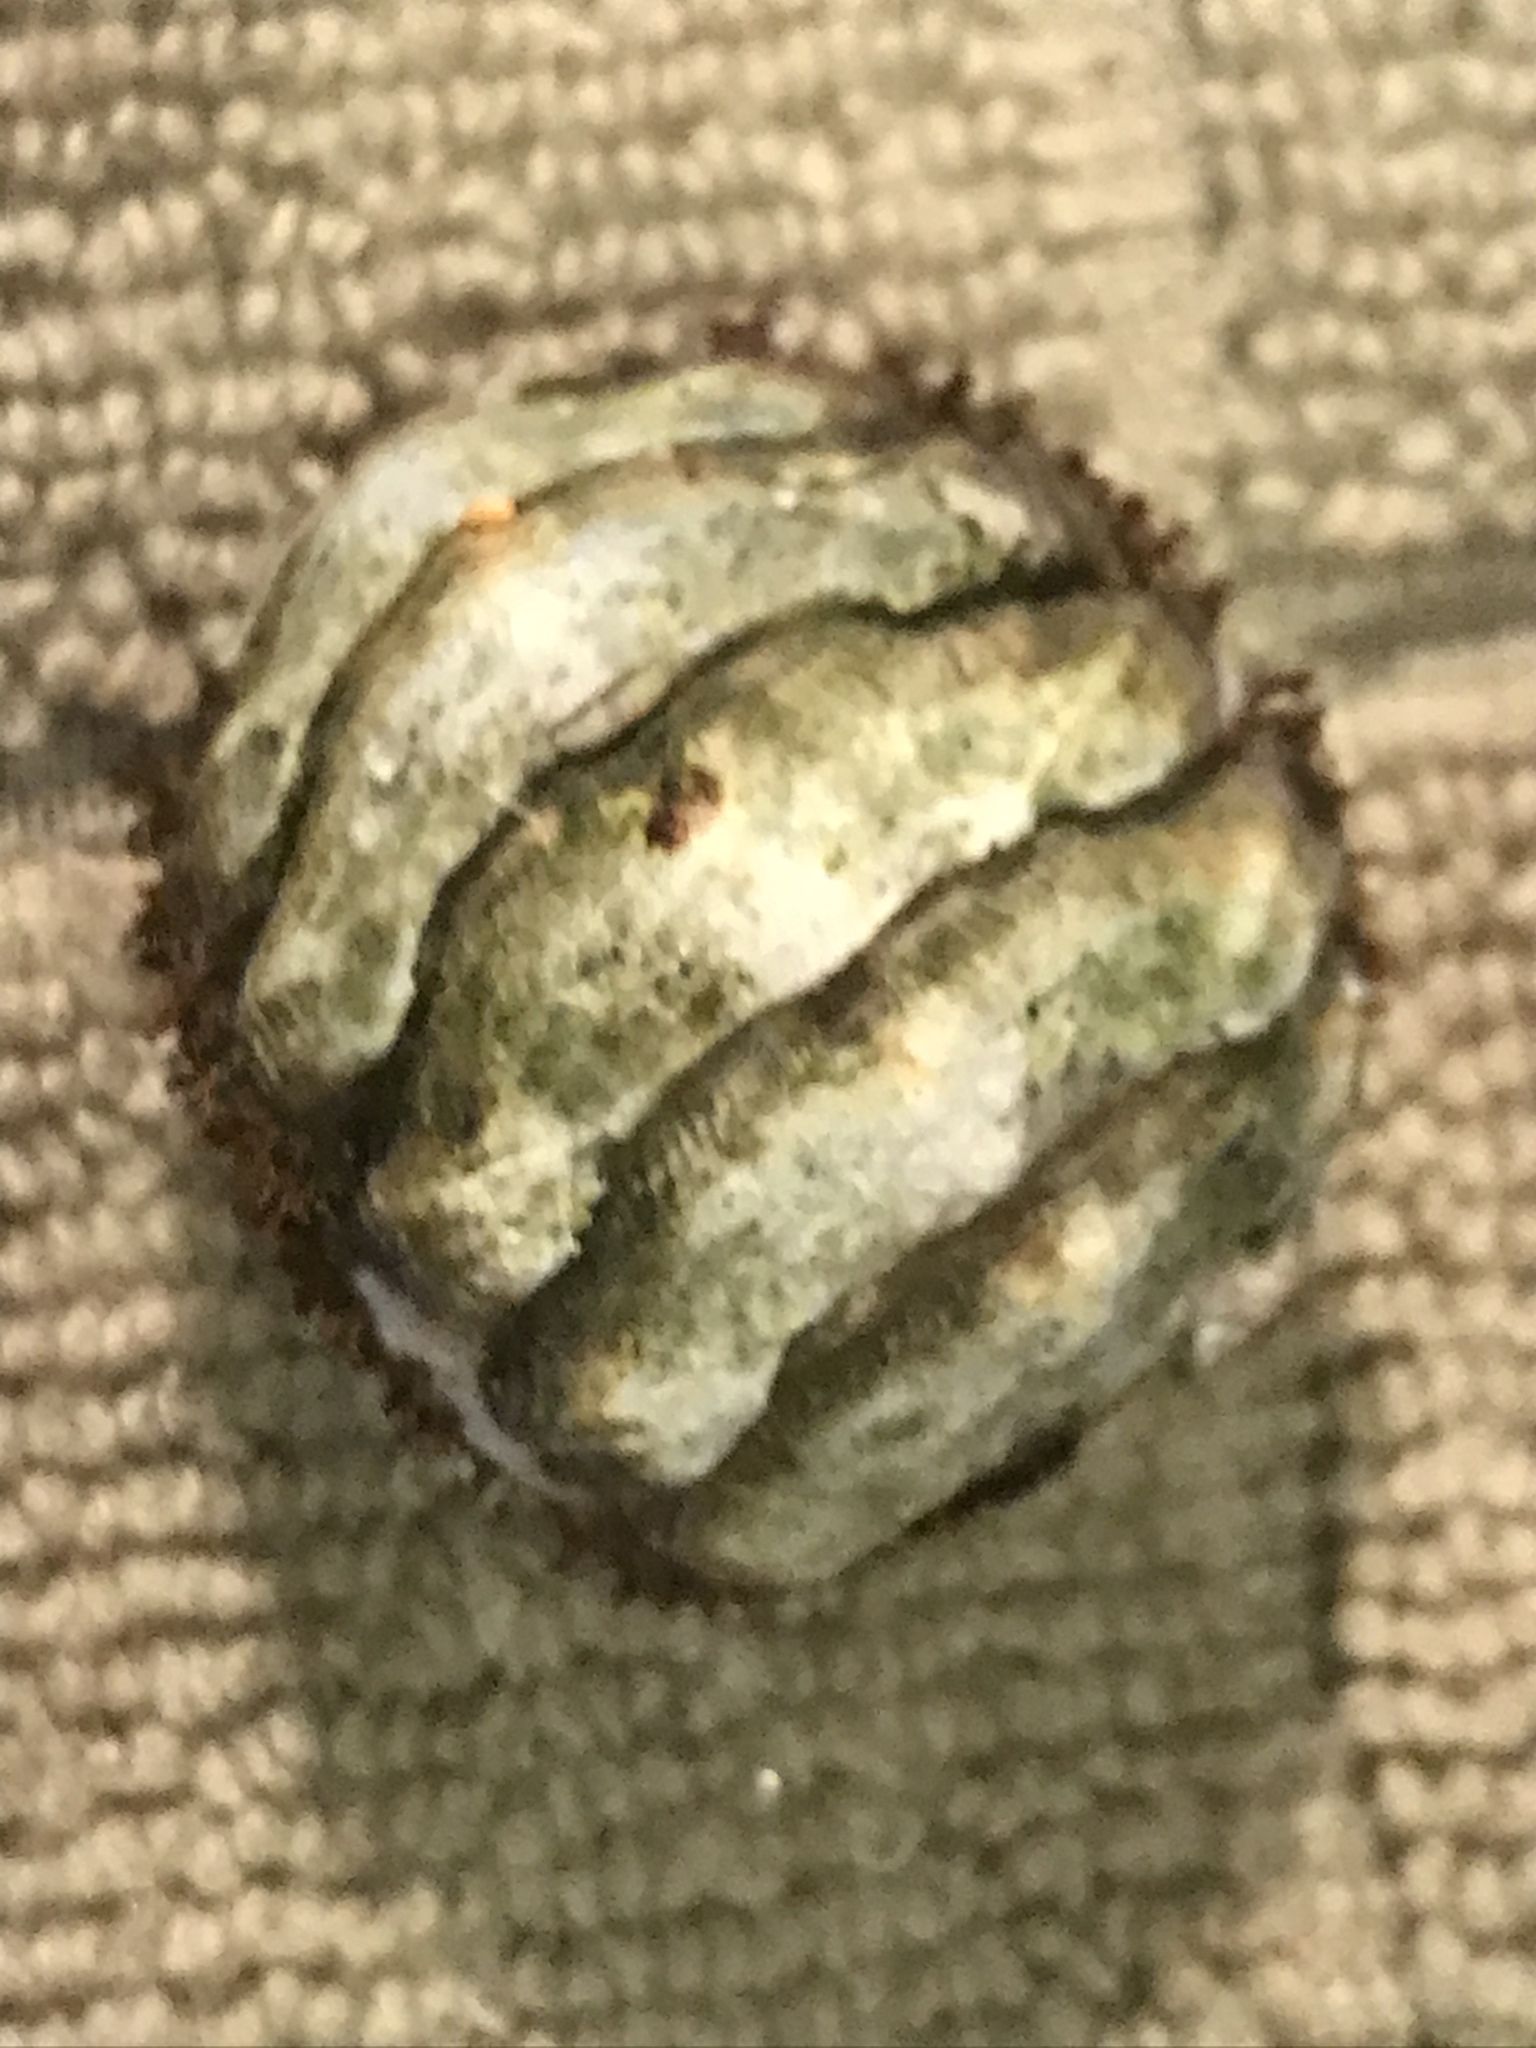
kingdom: Animalia
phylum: Mollusca
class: Polyplacophora
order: Chitonida
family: Mopaliidae
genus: Mopalia
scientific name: Mopalia muscosa
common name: Mossy chiton
